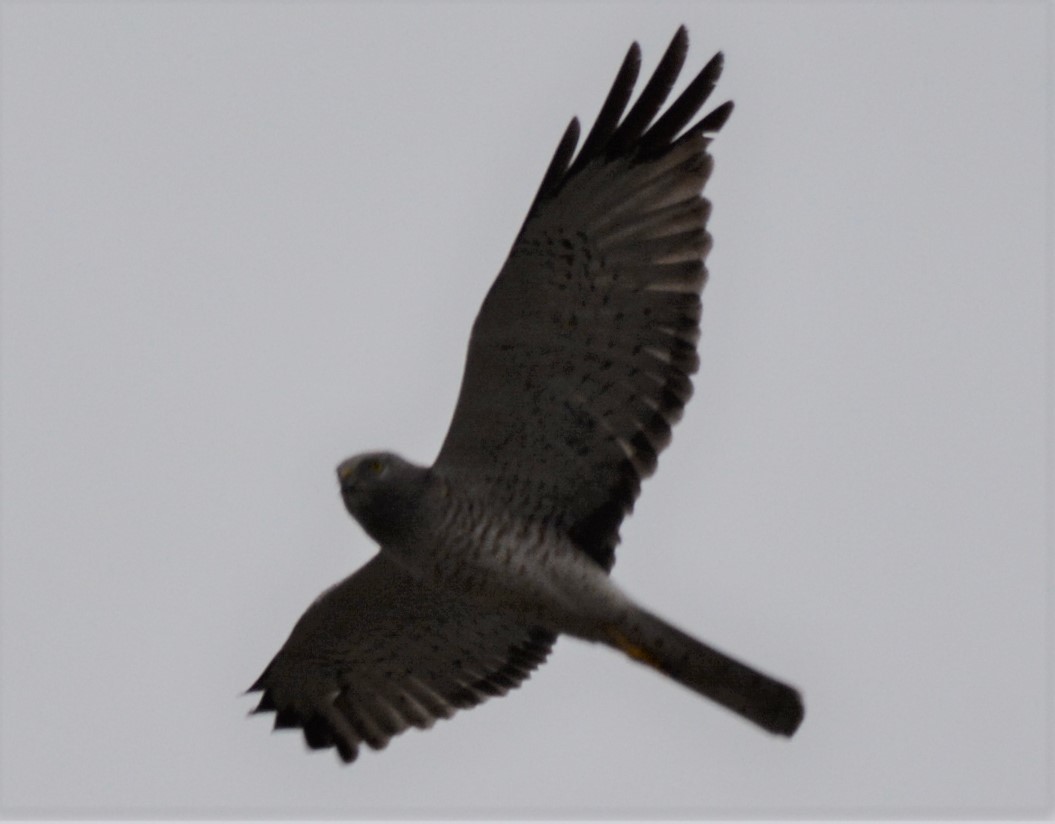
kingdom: Animalia
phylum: Chordata
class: Aves
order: Accipitriformes
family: Accipitridae
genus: Circus
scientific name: Circus cyaneus
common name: Hen harrier
